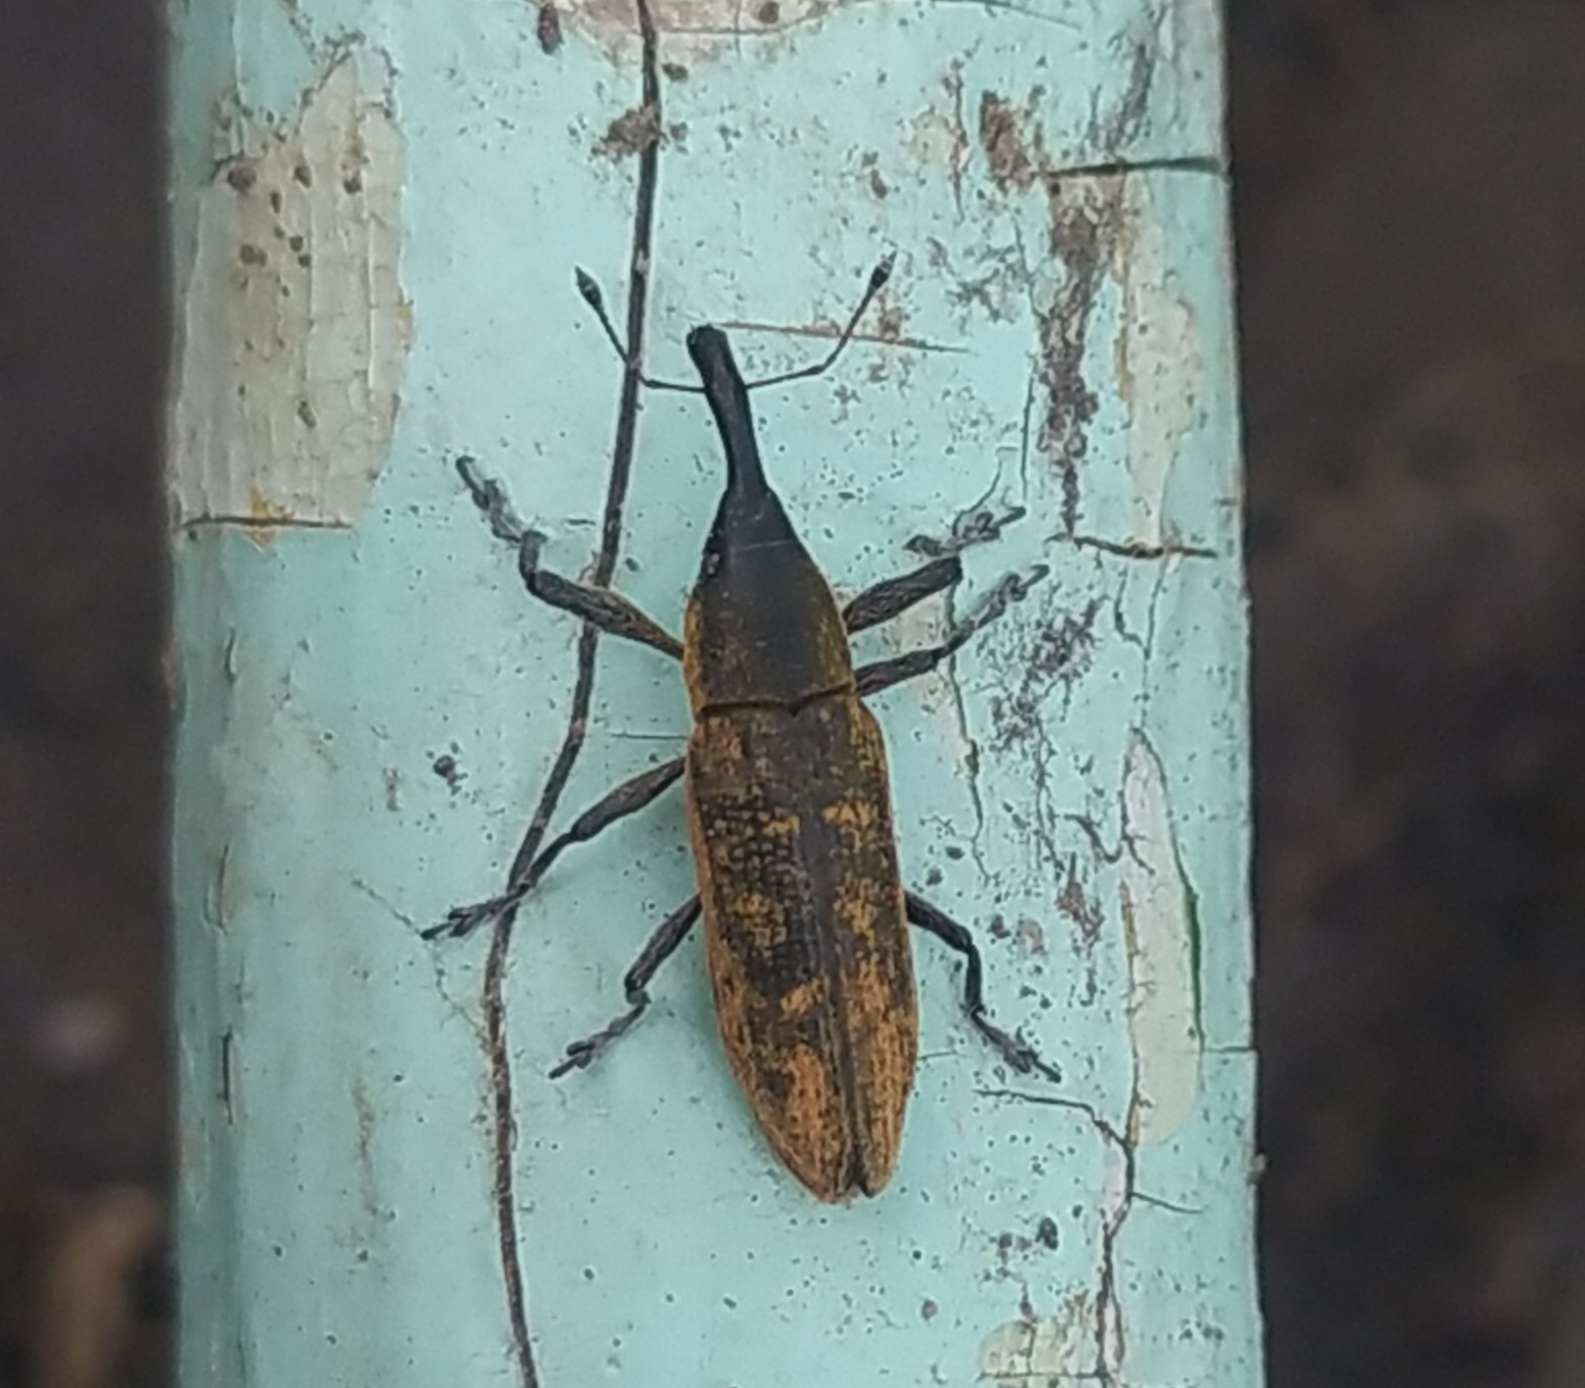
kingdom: Animalia
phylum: Arthropoda
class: Insecta
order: Coleoptera
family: Curculionidae
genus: Lixus
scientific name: Lixus fasciculatus
